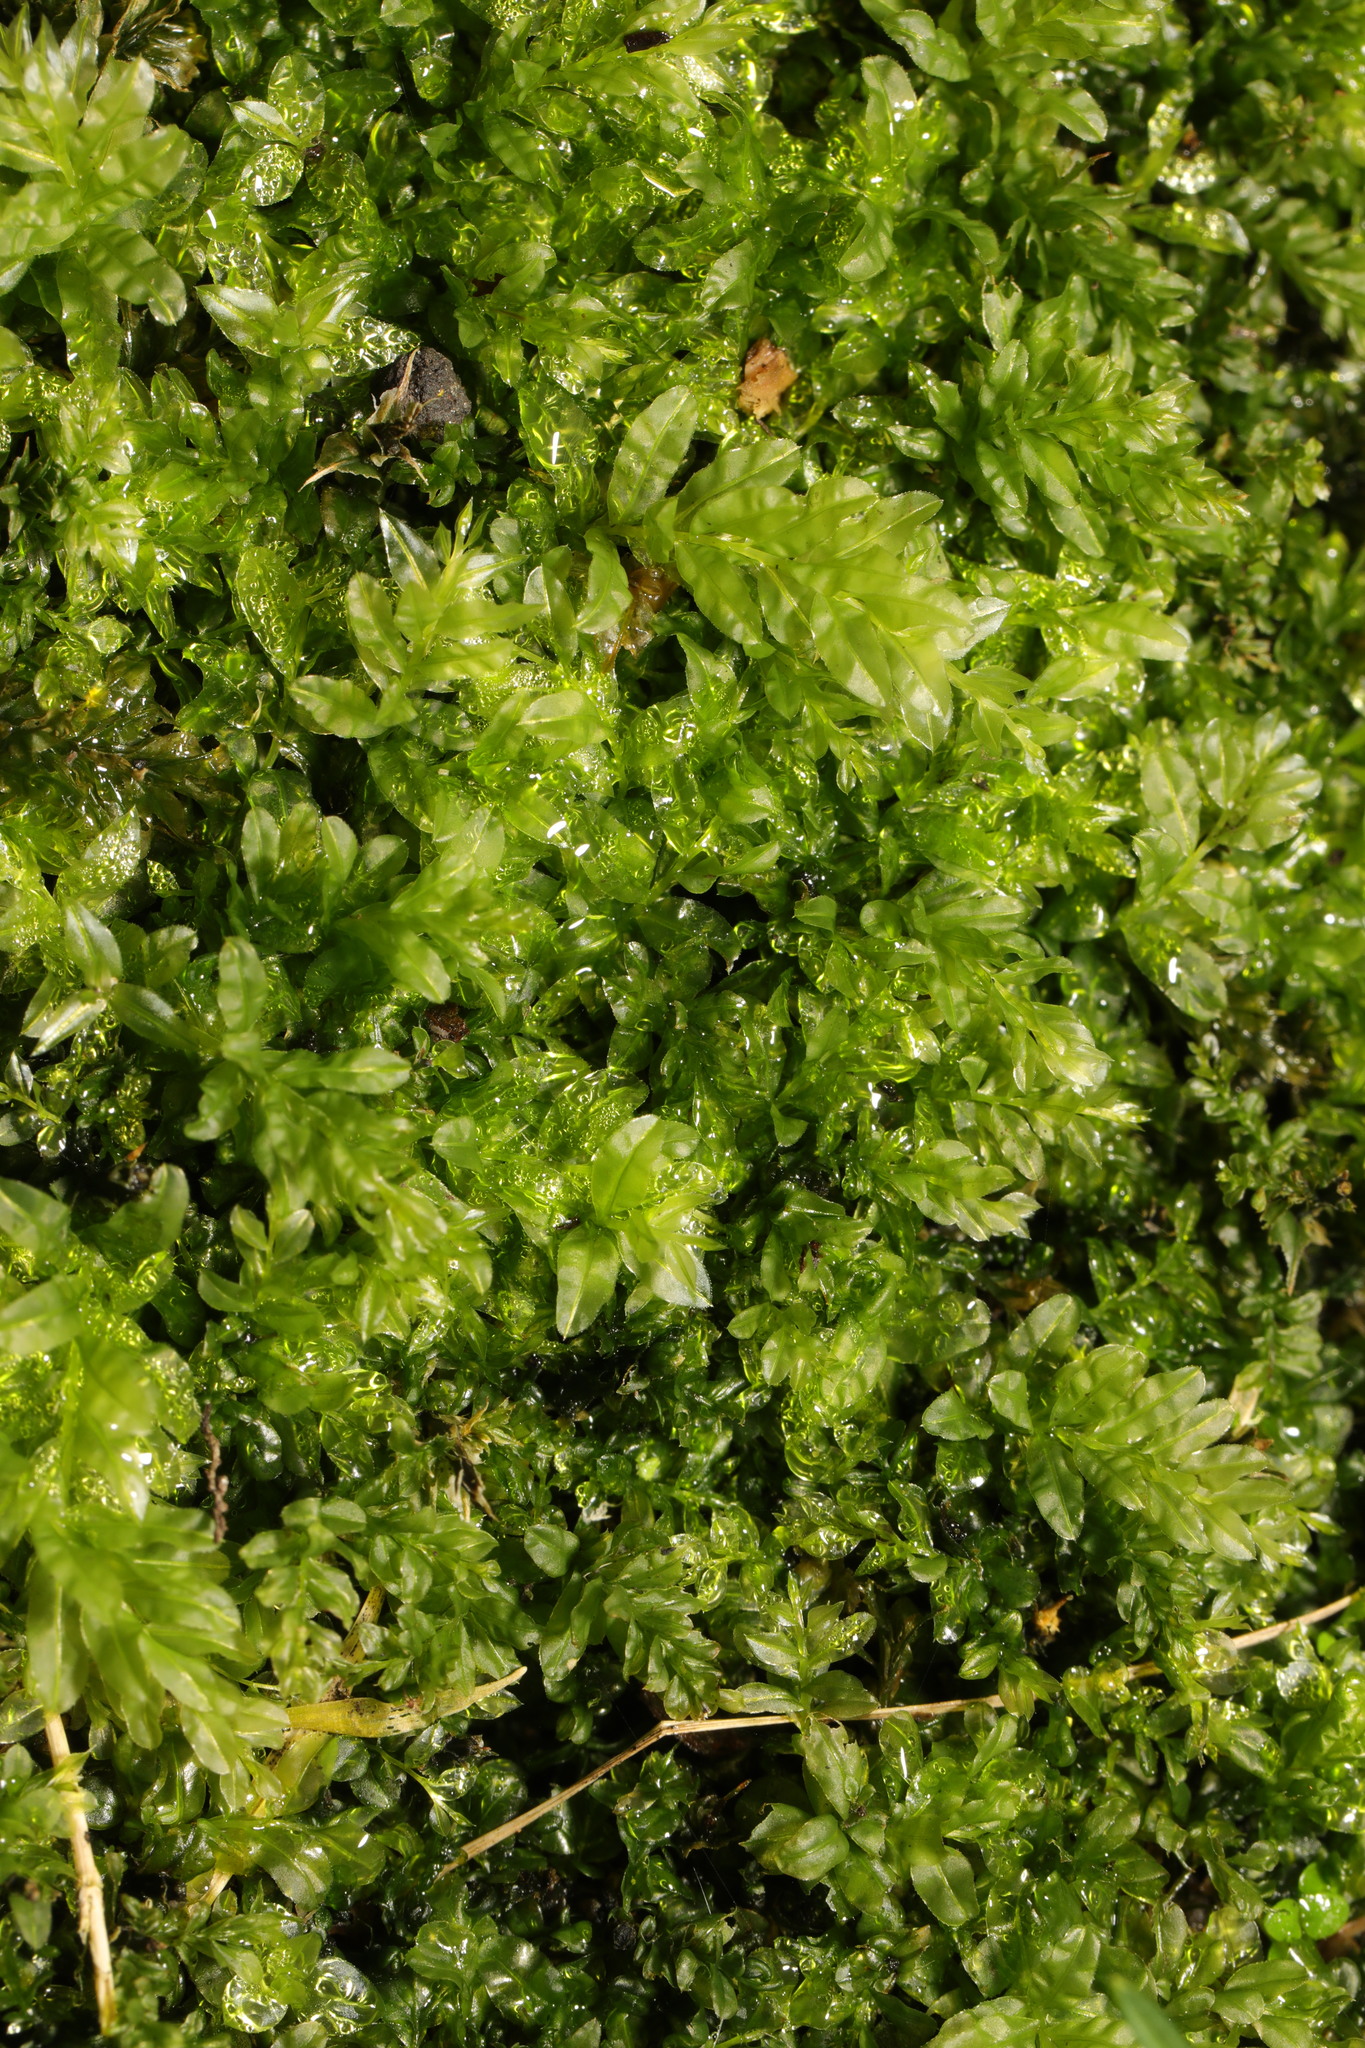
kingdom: Plantae
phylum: Bryophyta
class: Bryopsida
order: Bryales
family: Mniaceae
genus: Plagiomnium
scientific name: Plagiomnium undulatum
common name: Hart's-tongue thyme-moss
